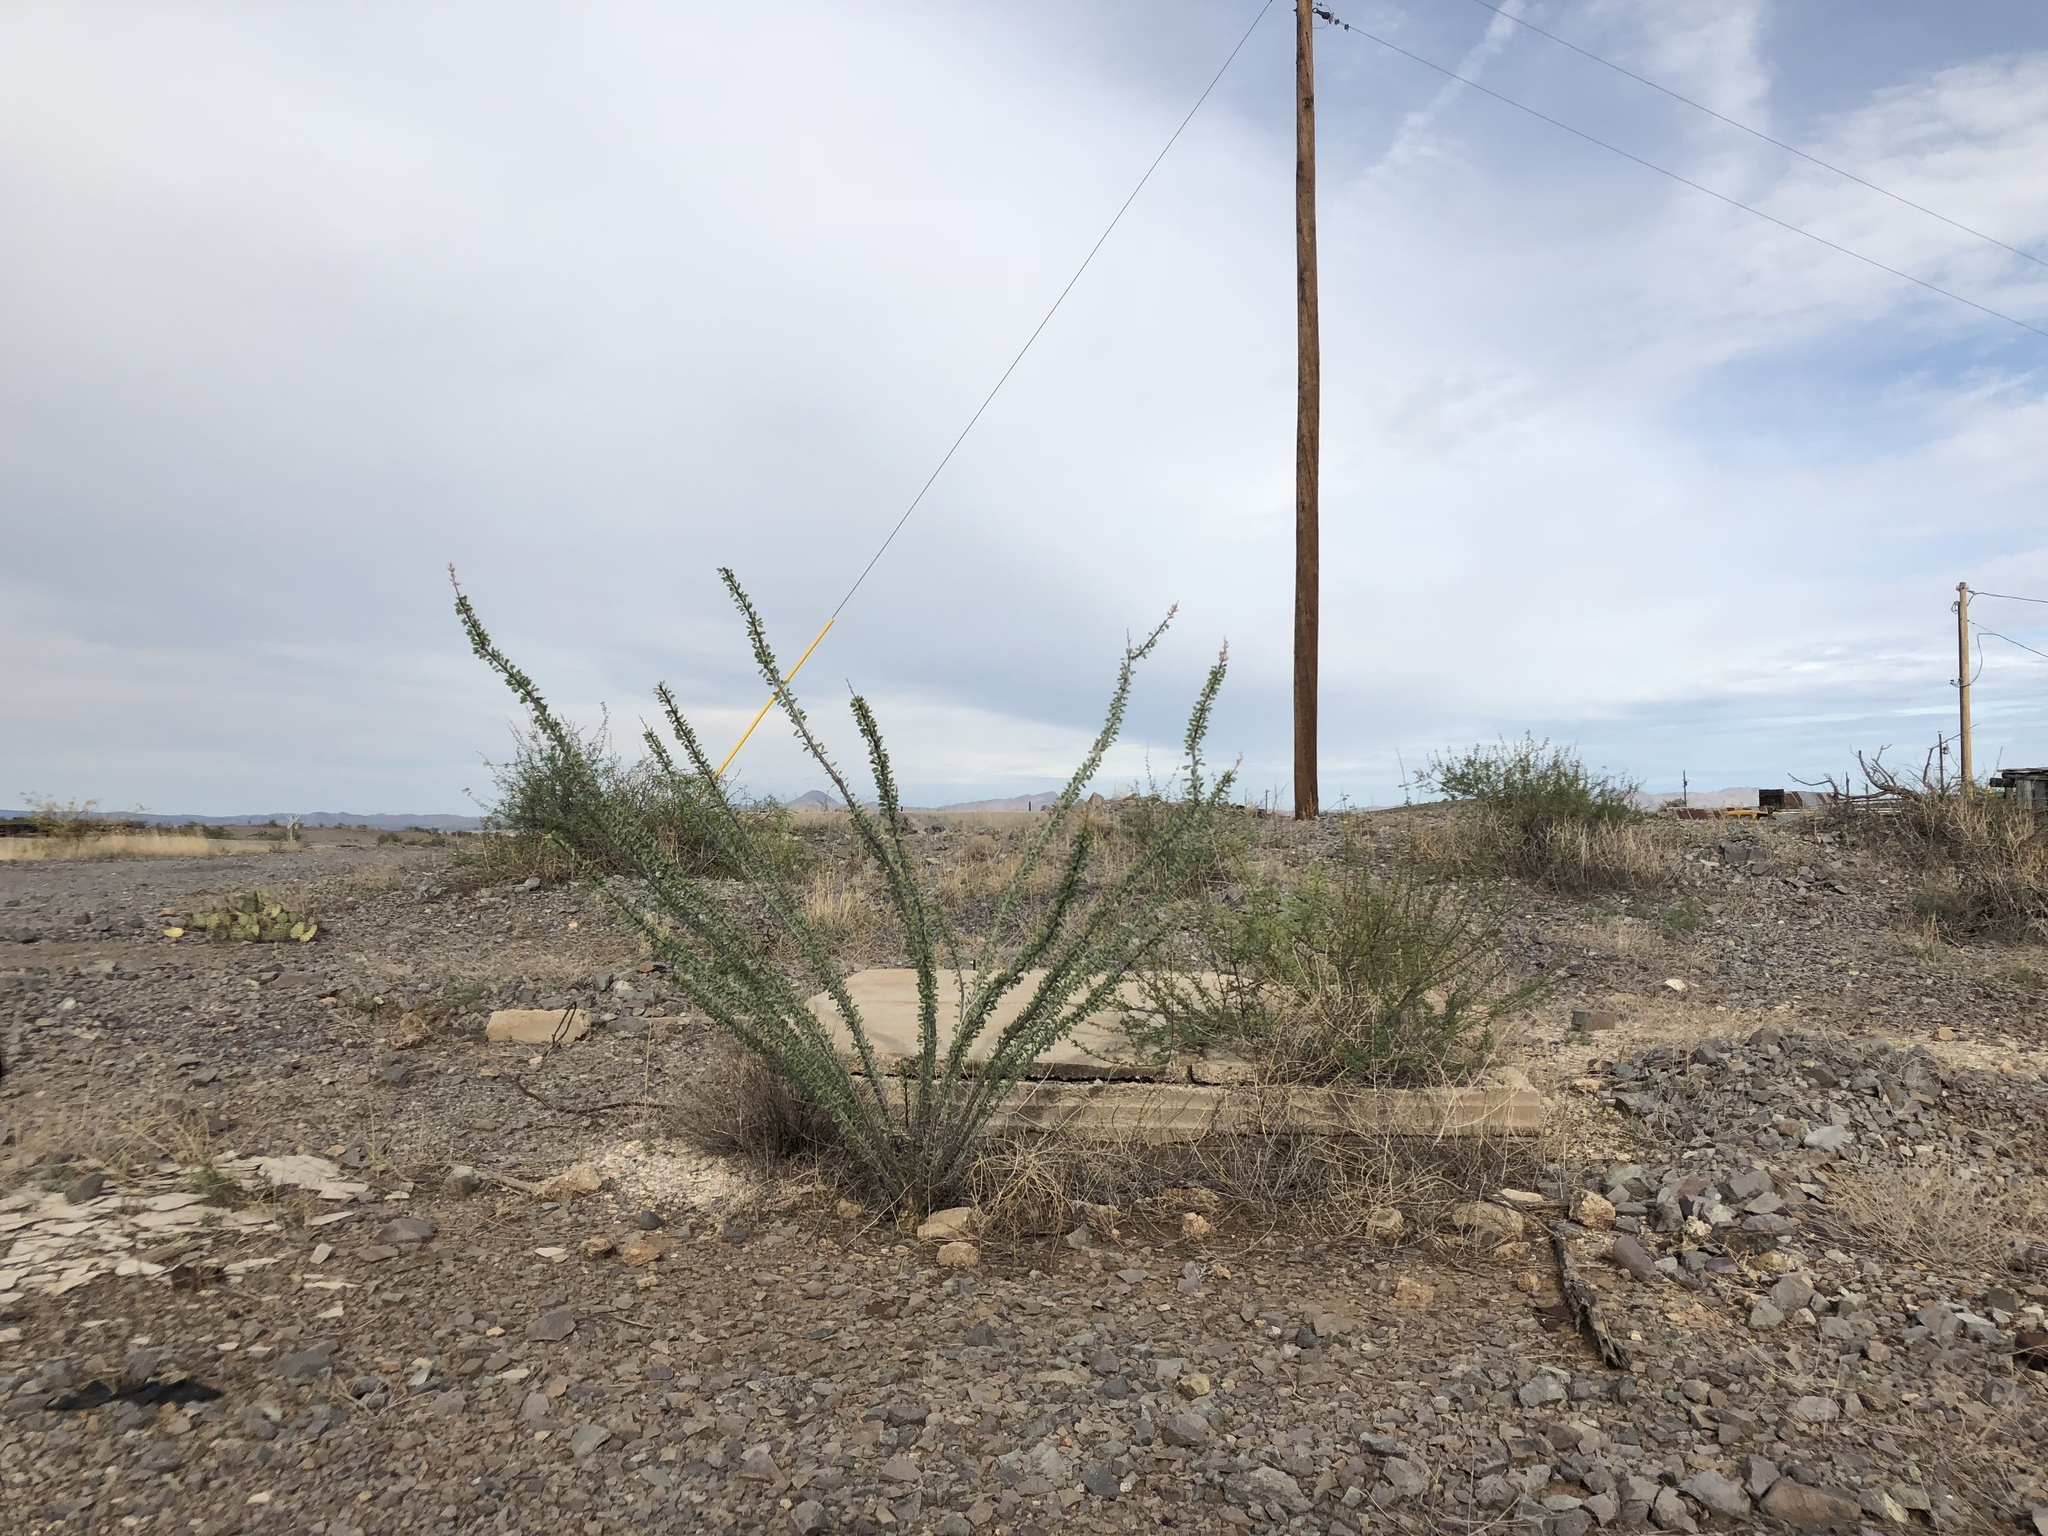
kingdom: Plantae
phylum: Tracheophyta
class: Magnoliopsida
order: Ericales
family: Fouquieriaceae
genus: Fouquieria
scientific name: Fouquieria splendens
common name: Vine-cactus
